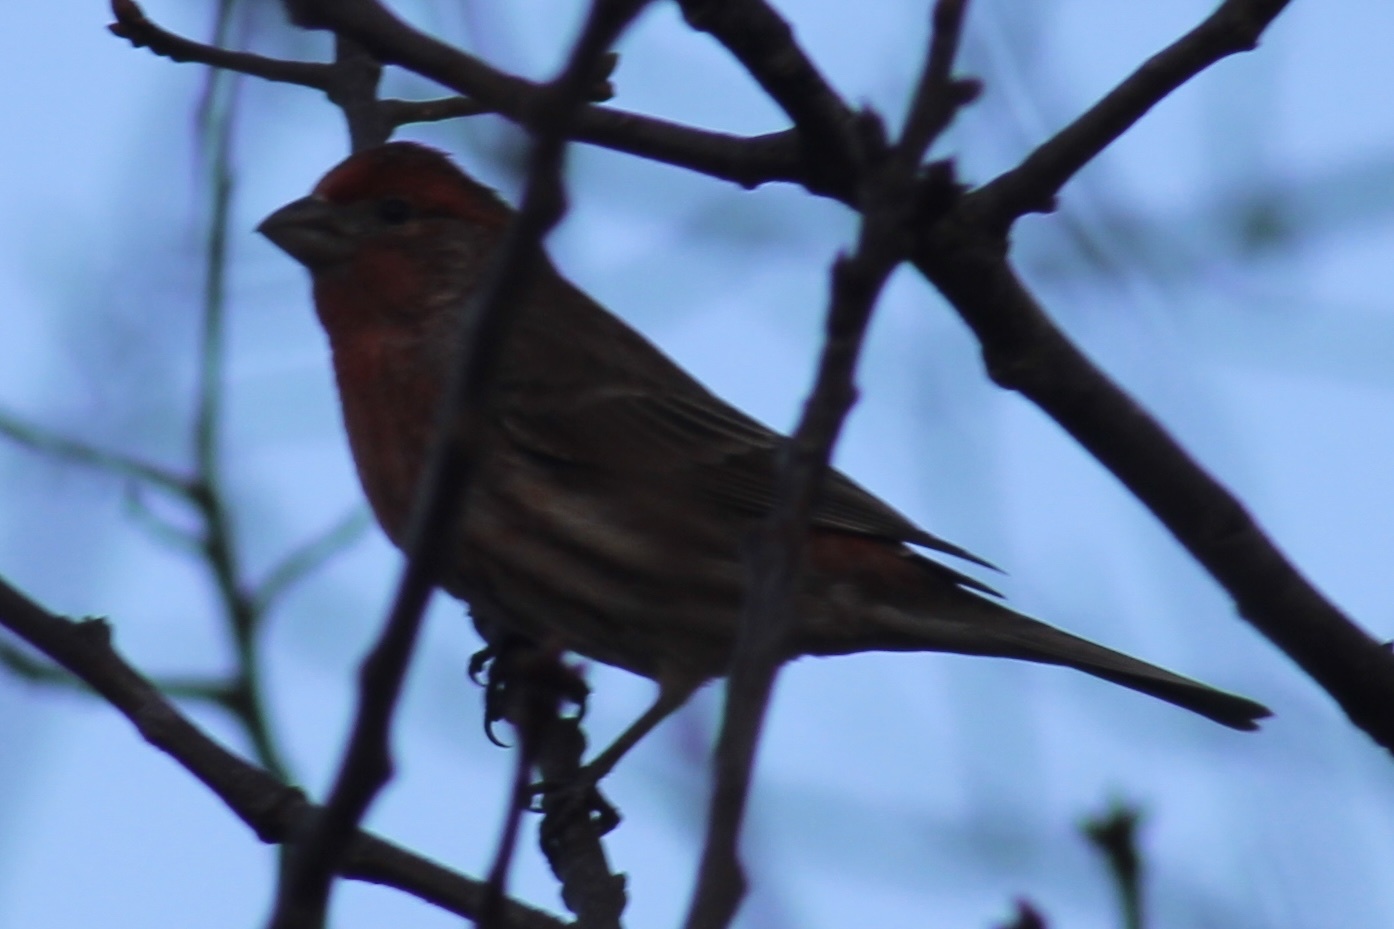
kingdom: Animalia
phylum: Chordata
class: Aves
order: Passeriformes
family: Fringillidae
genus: Haemorhous
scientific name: Haemorhous mexicanus
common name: House finch
